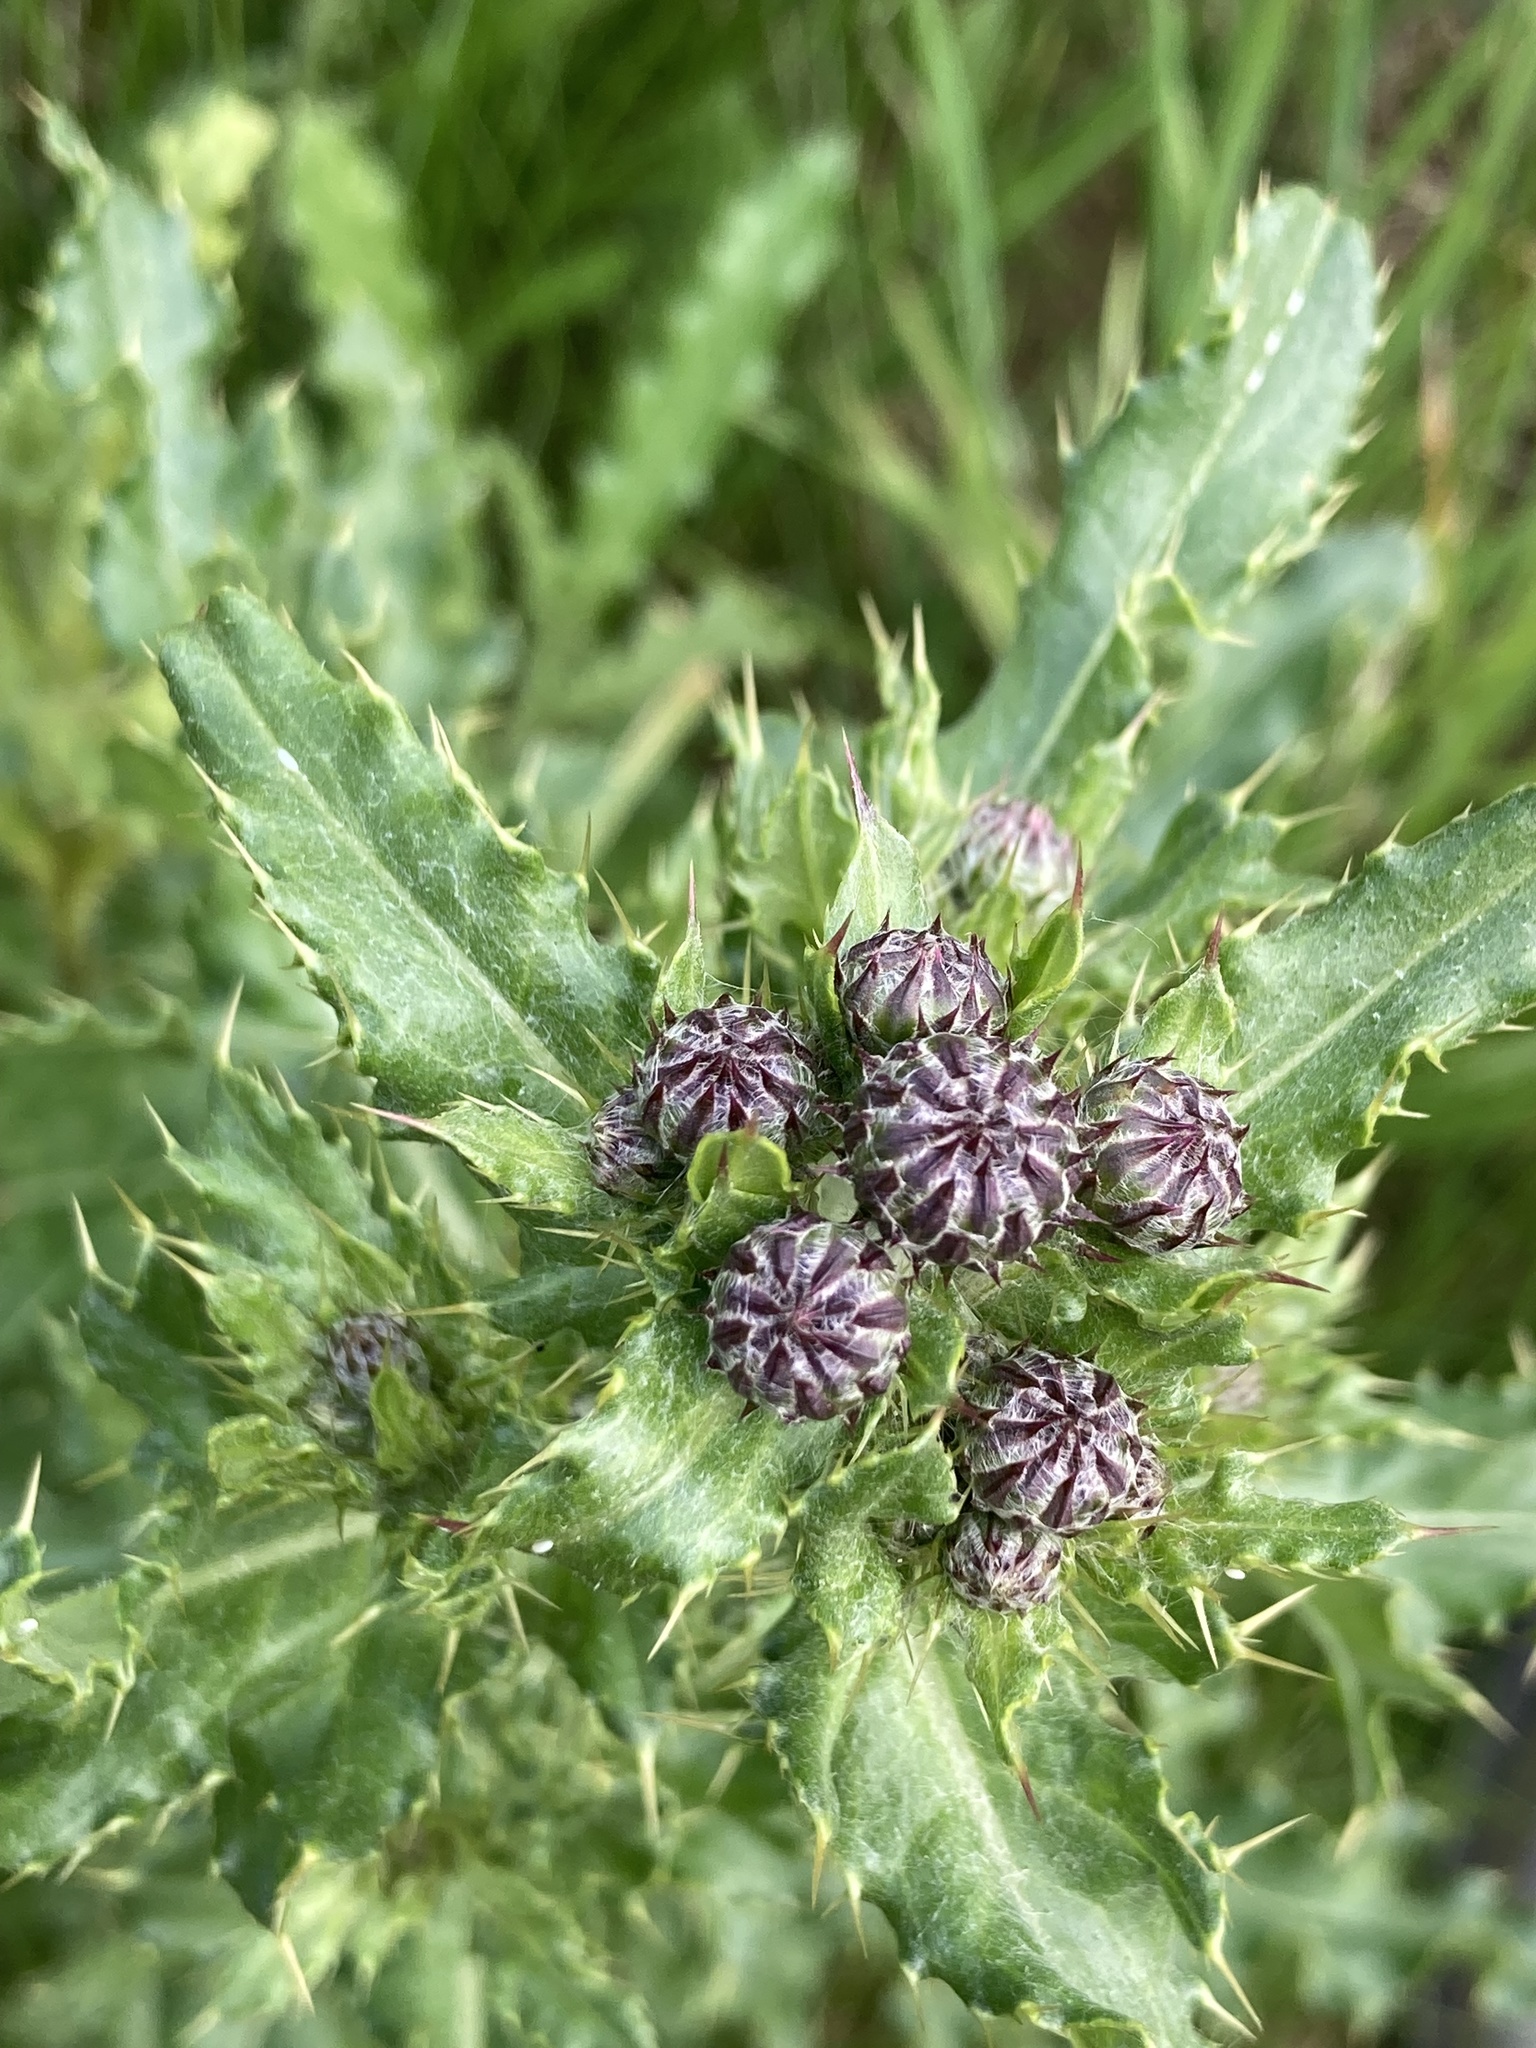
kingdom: Plantae
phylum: Tracheophyta
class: Magnoliopsida
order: Asterales
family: Asteraceae
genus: Cirsium
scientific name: Cirsium arvense
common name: Creeping thistle
